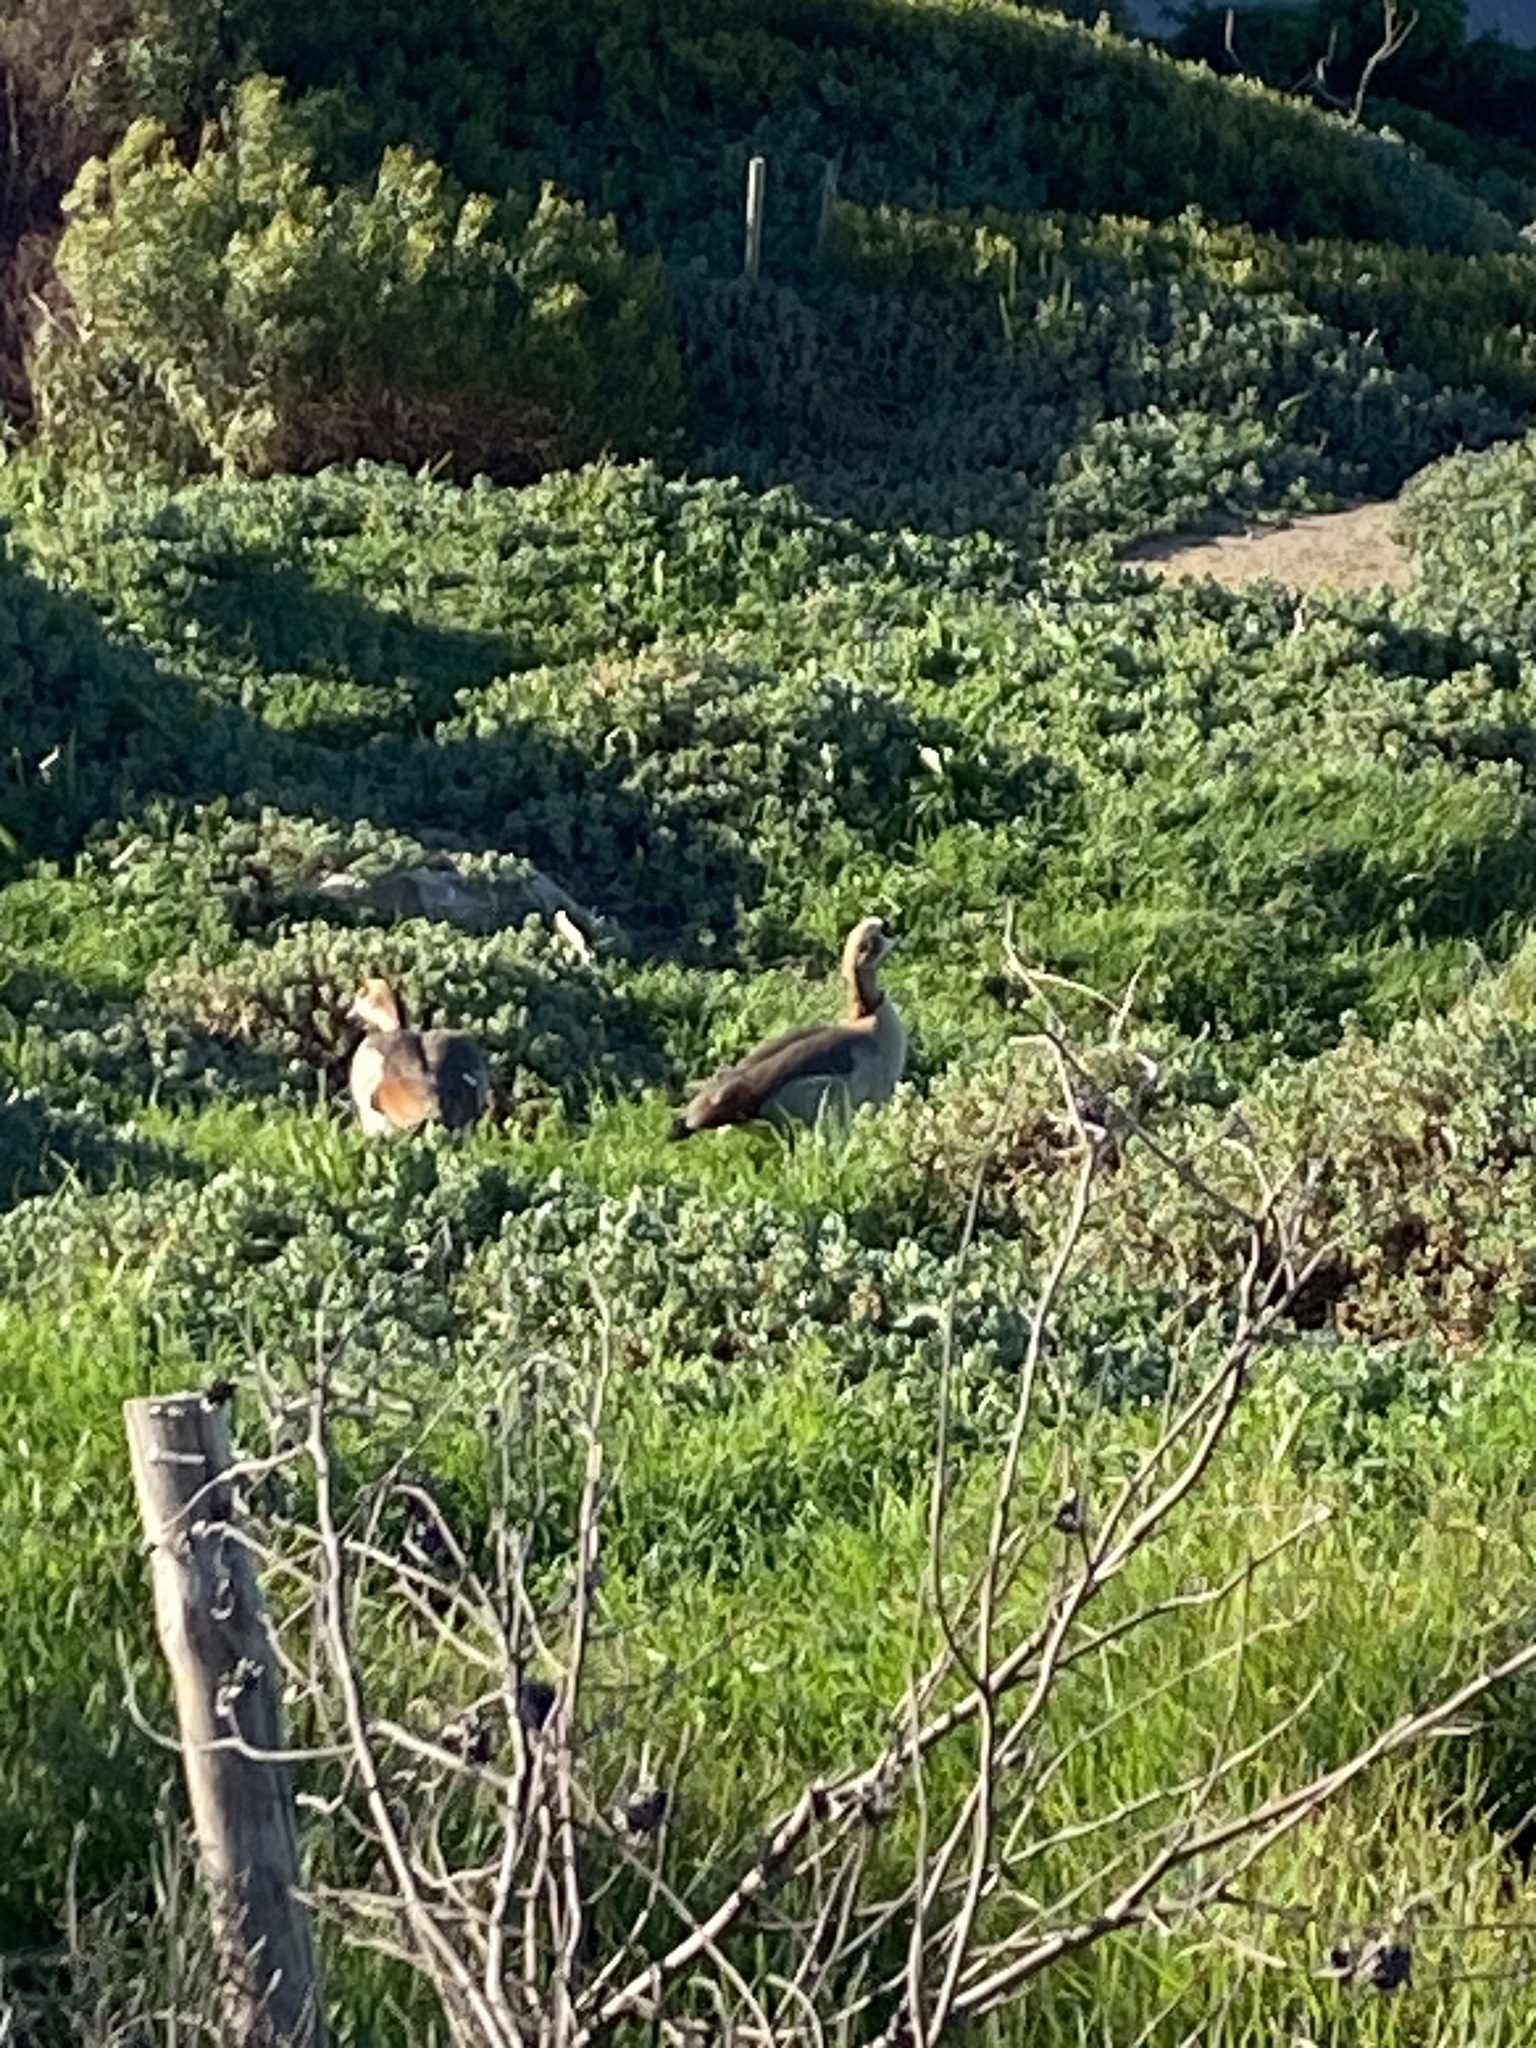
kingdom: Animalia
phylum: Chordata
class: Aves
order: Anseriformes
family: Anatidae
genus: Alopochen
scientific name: Alopochen aegyptiaca
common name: Egyptian goose
